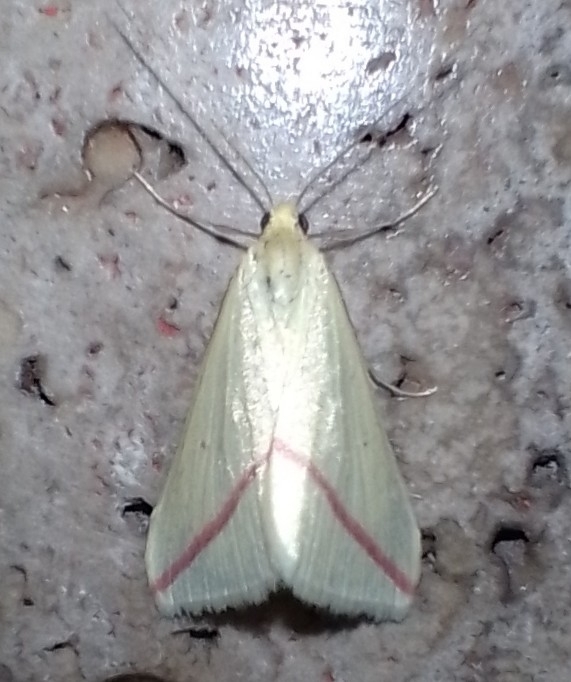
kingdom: Animalia
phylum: Arthropoda
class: Insecta
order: Lepidoptera
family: Geometridae
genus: Rhodometra
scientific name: Rhodometra sacraria
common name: Vestal
